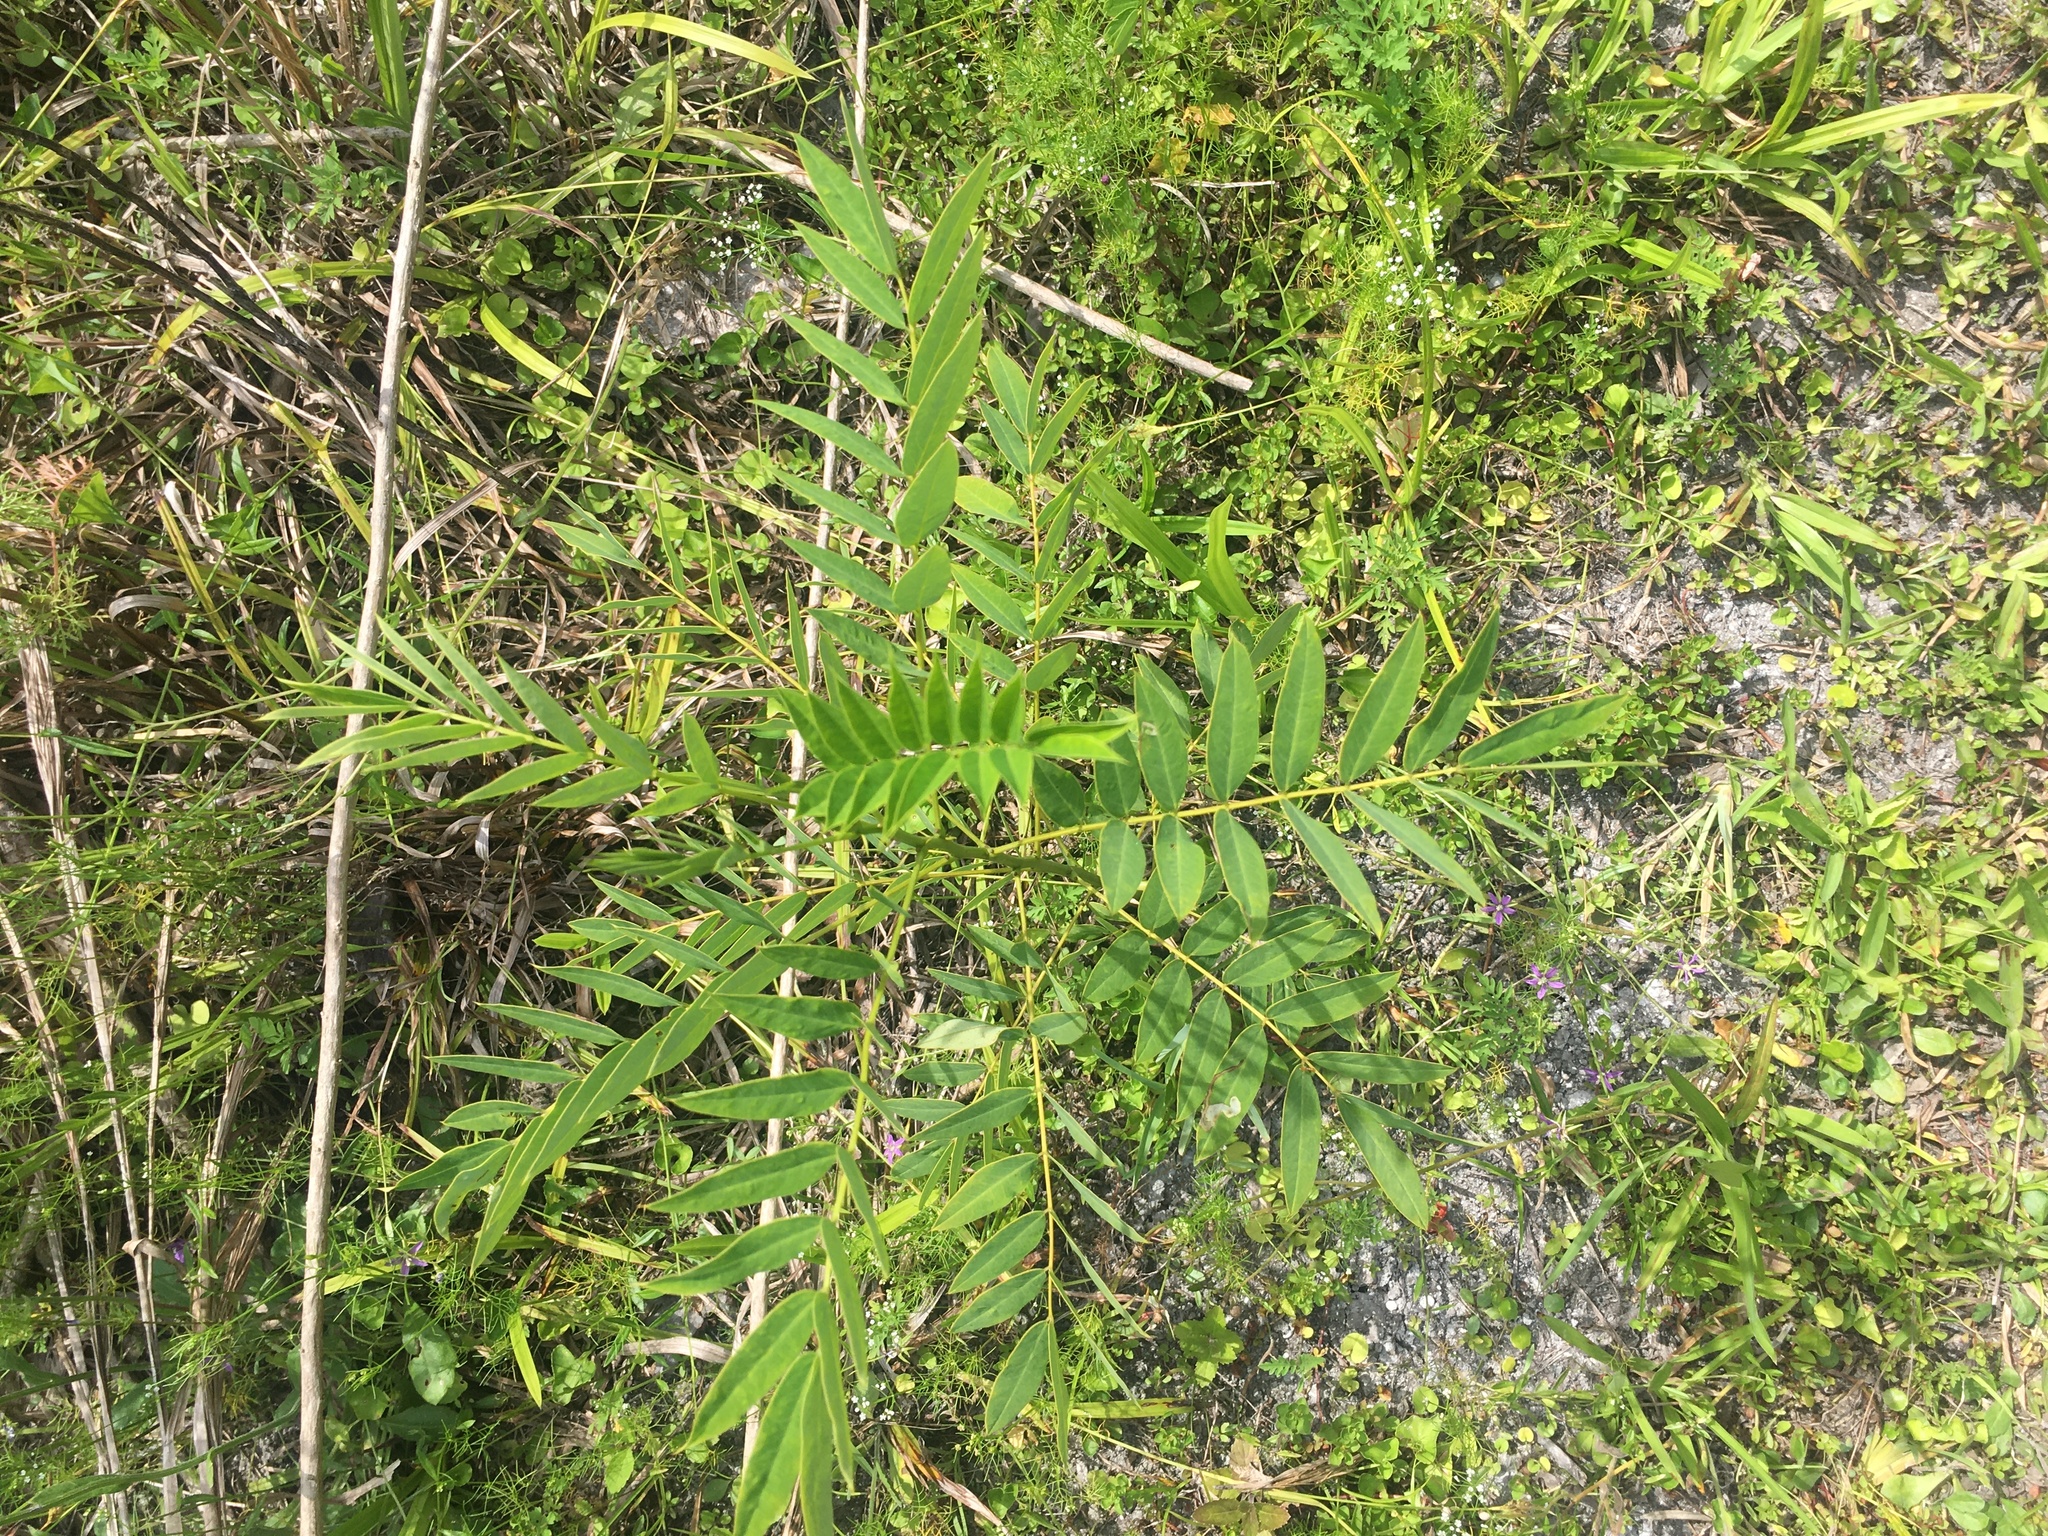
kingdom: Plantae
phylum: Tracheophyta
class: Magnoliopsida
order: Sapindales
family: Anacardiaceae
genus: Rhus
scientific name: Rhus copallina
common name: Shining sumac
